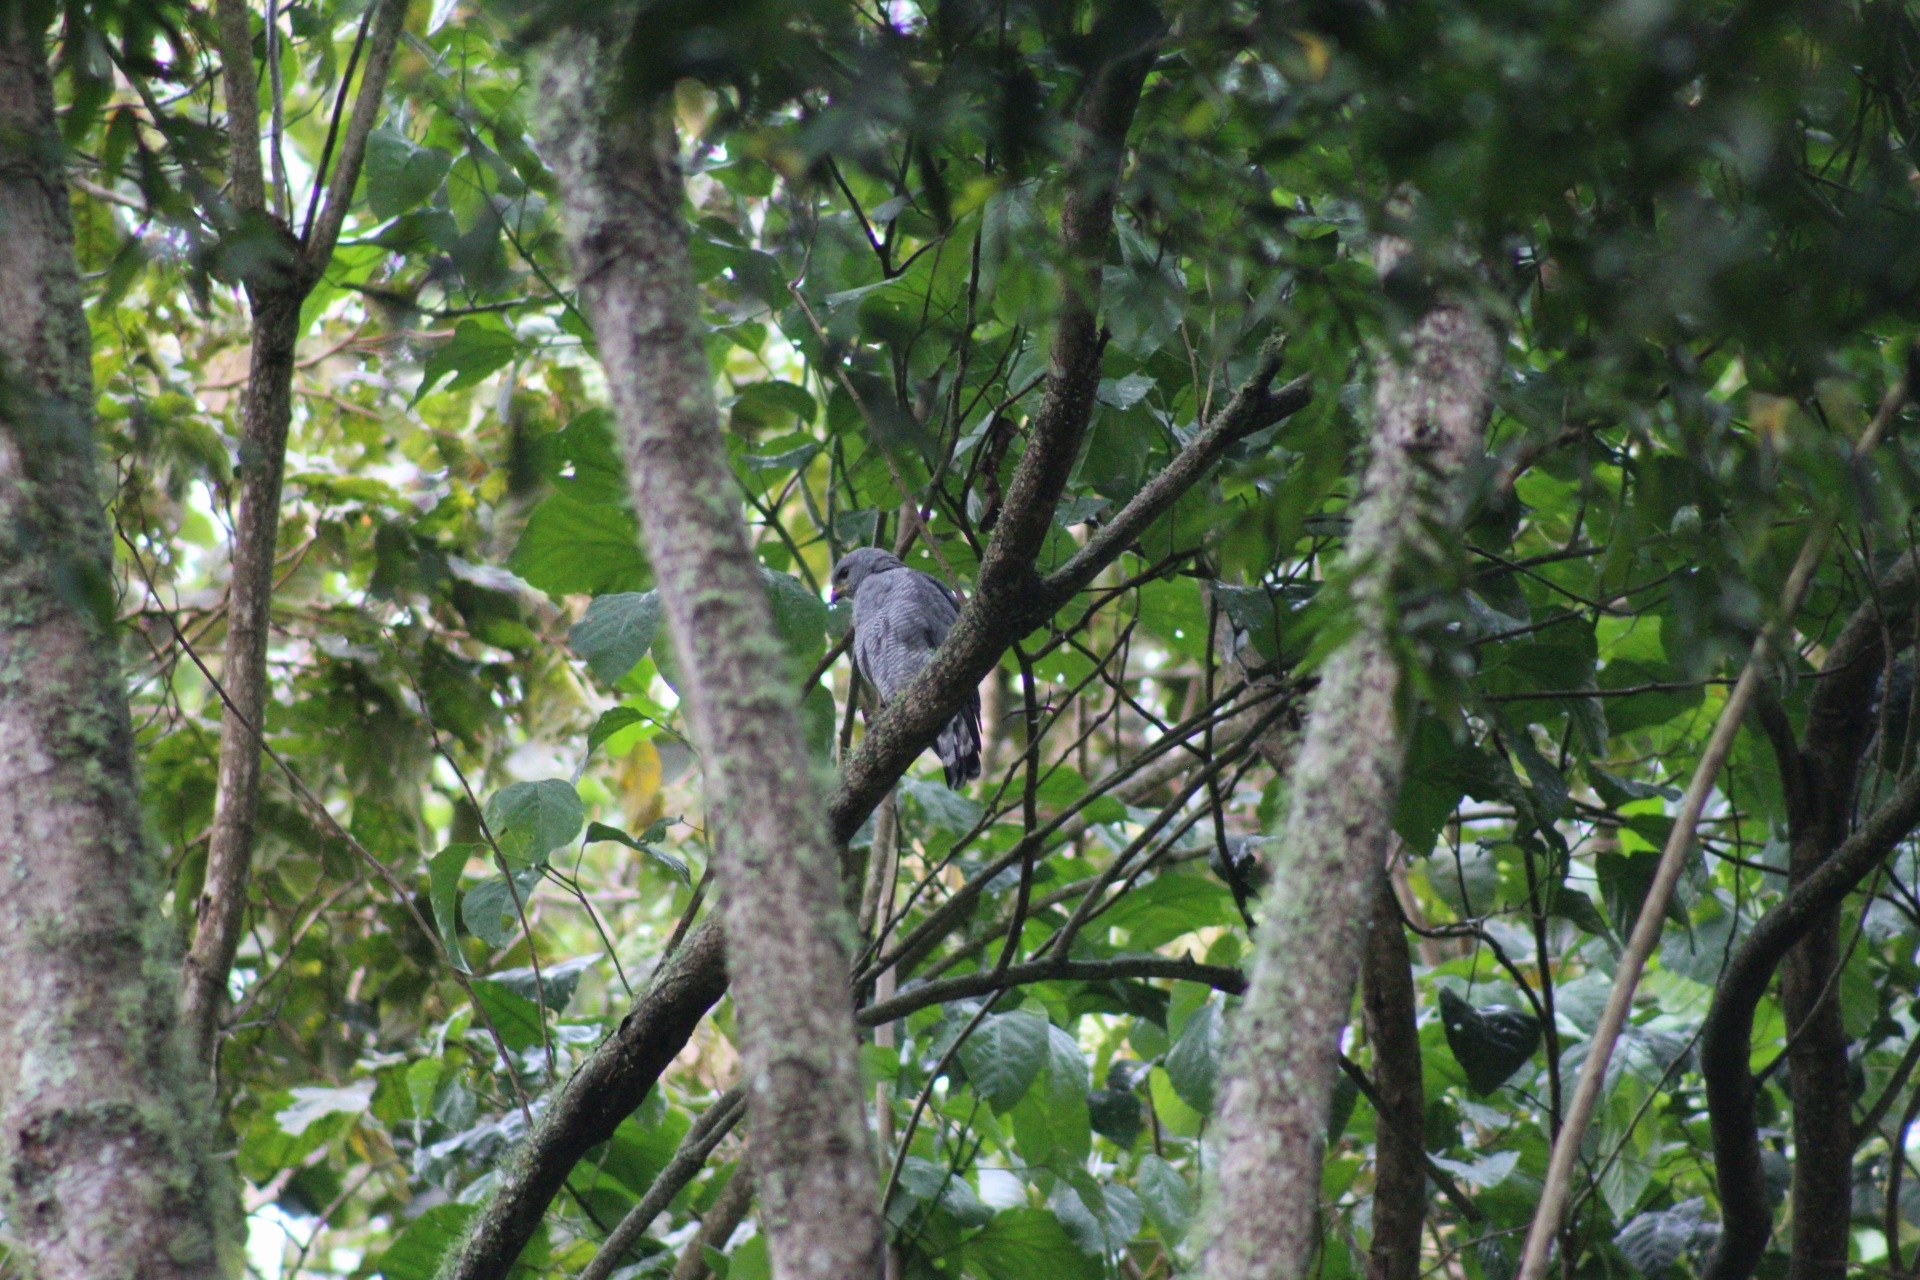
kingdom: Animalia
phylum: Chordata
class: Aves
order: Accipitriformes
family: Accipitridae
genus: Buteo
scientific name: Buteo nitidus
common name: Grey-lined hawk
